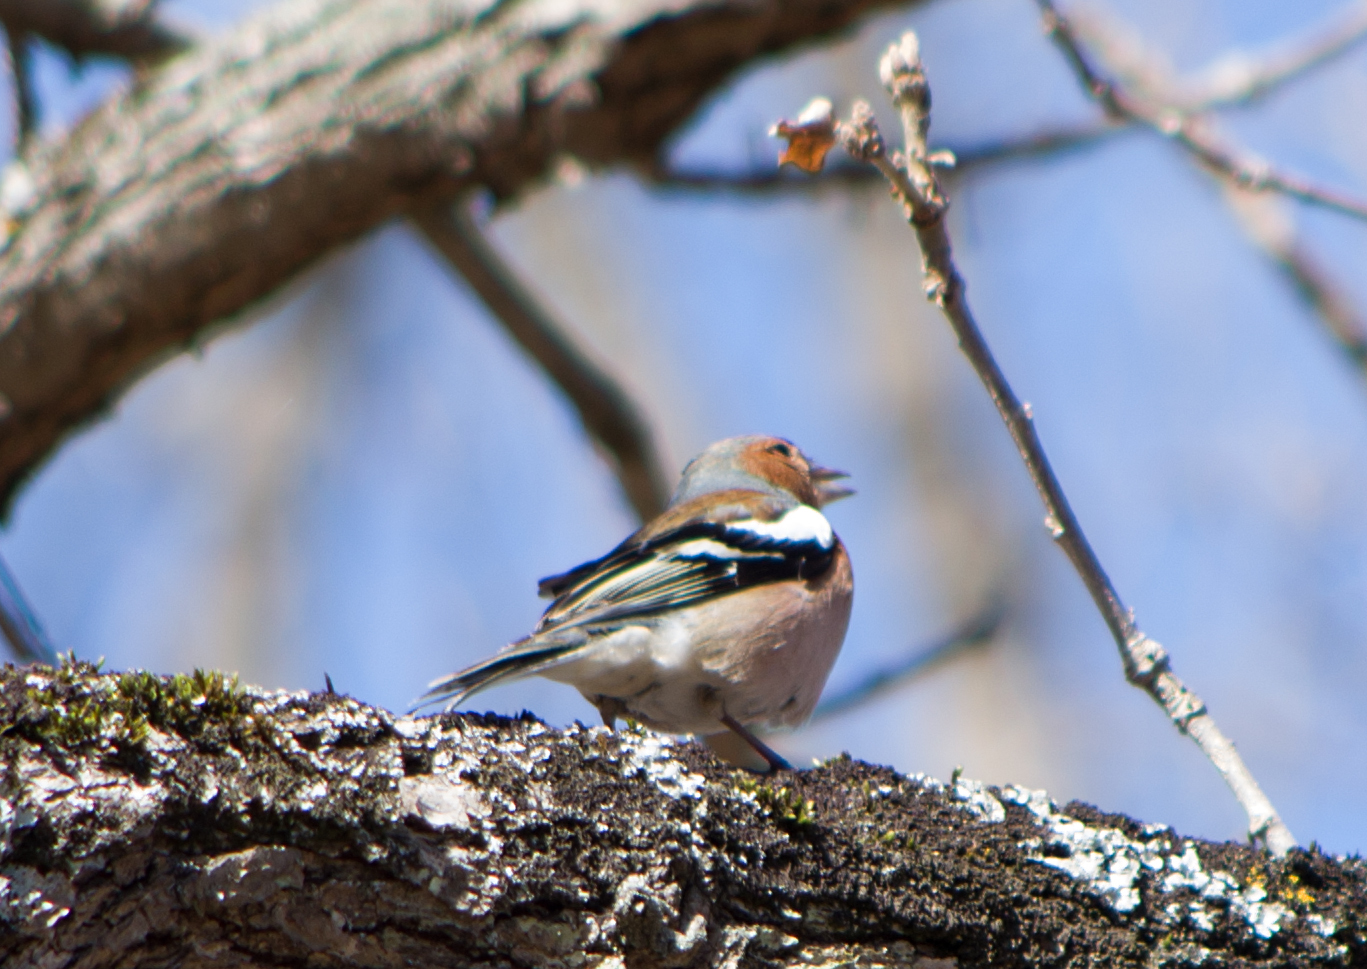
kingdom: Animalia
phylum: Chordata
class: Aves
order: Passeriformes
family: Fringillidae
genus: Fringilla
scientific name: Fringilla coelebs
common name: Common chaffinch
